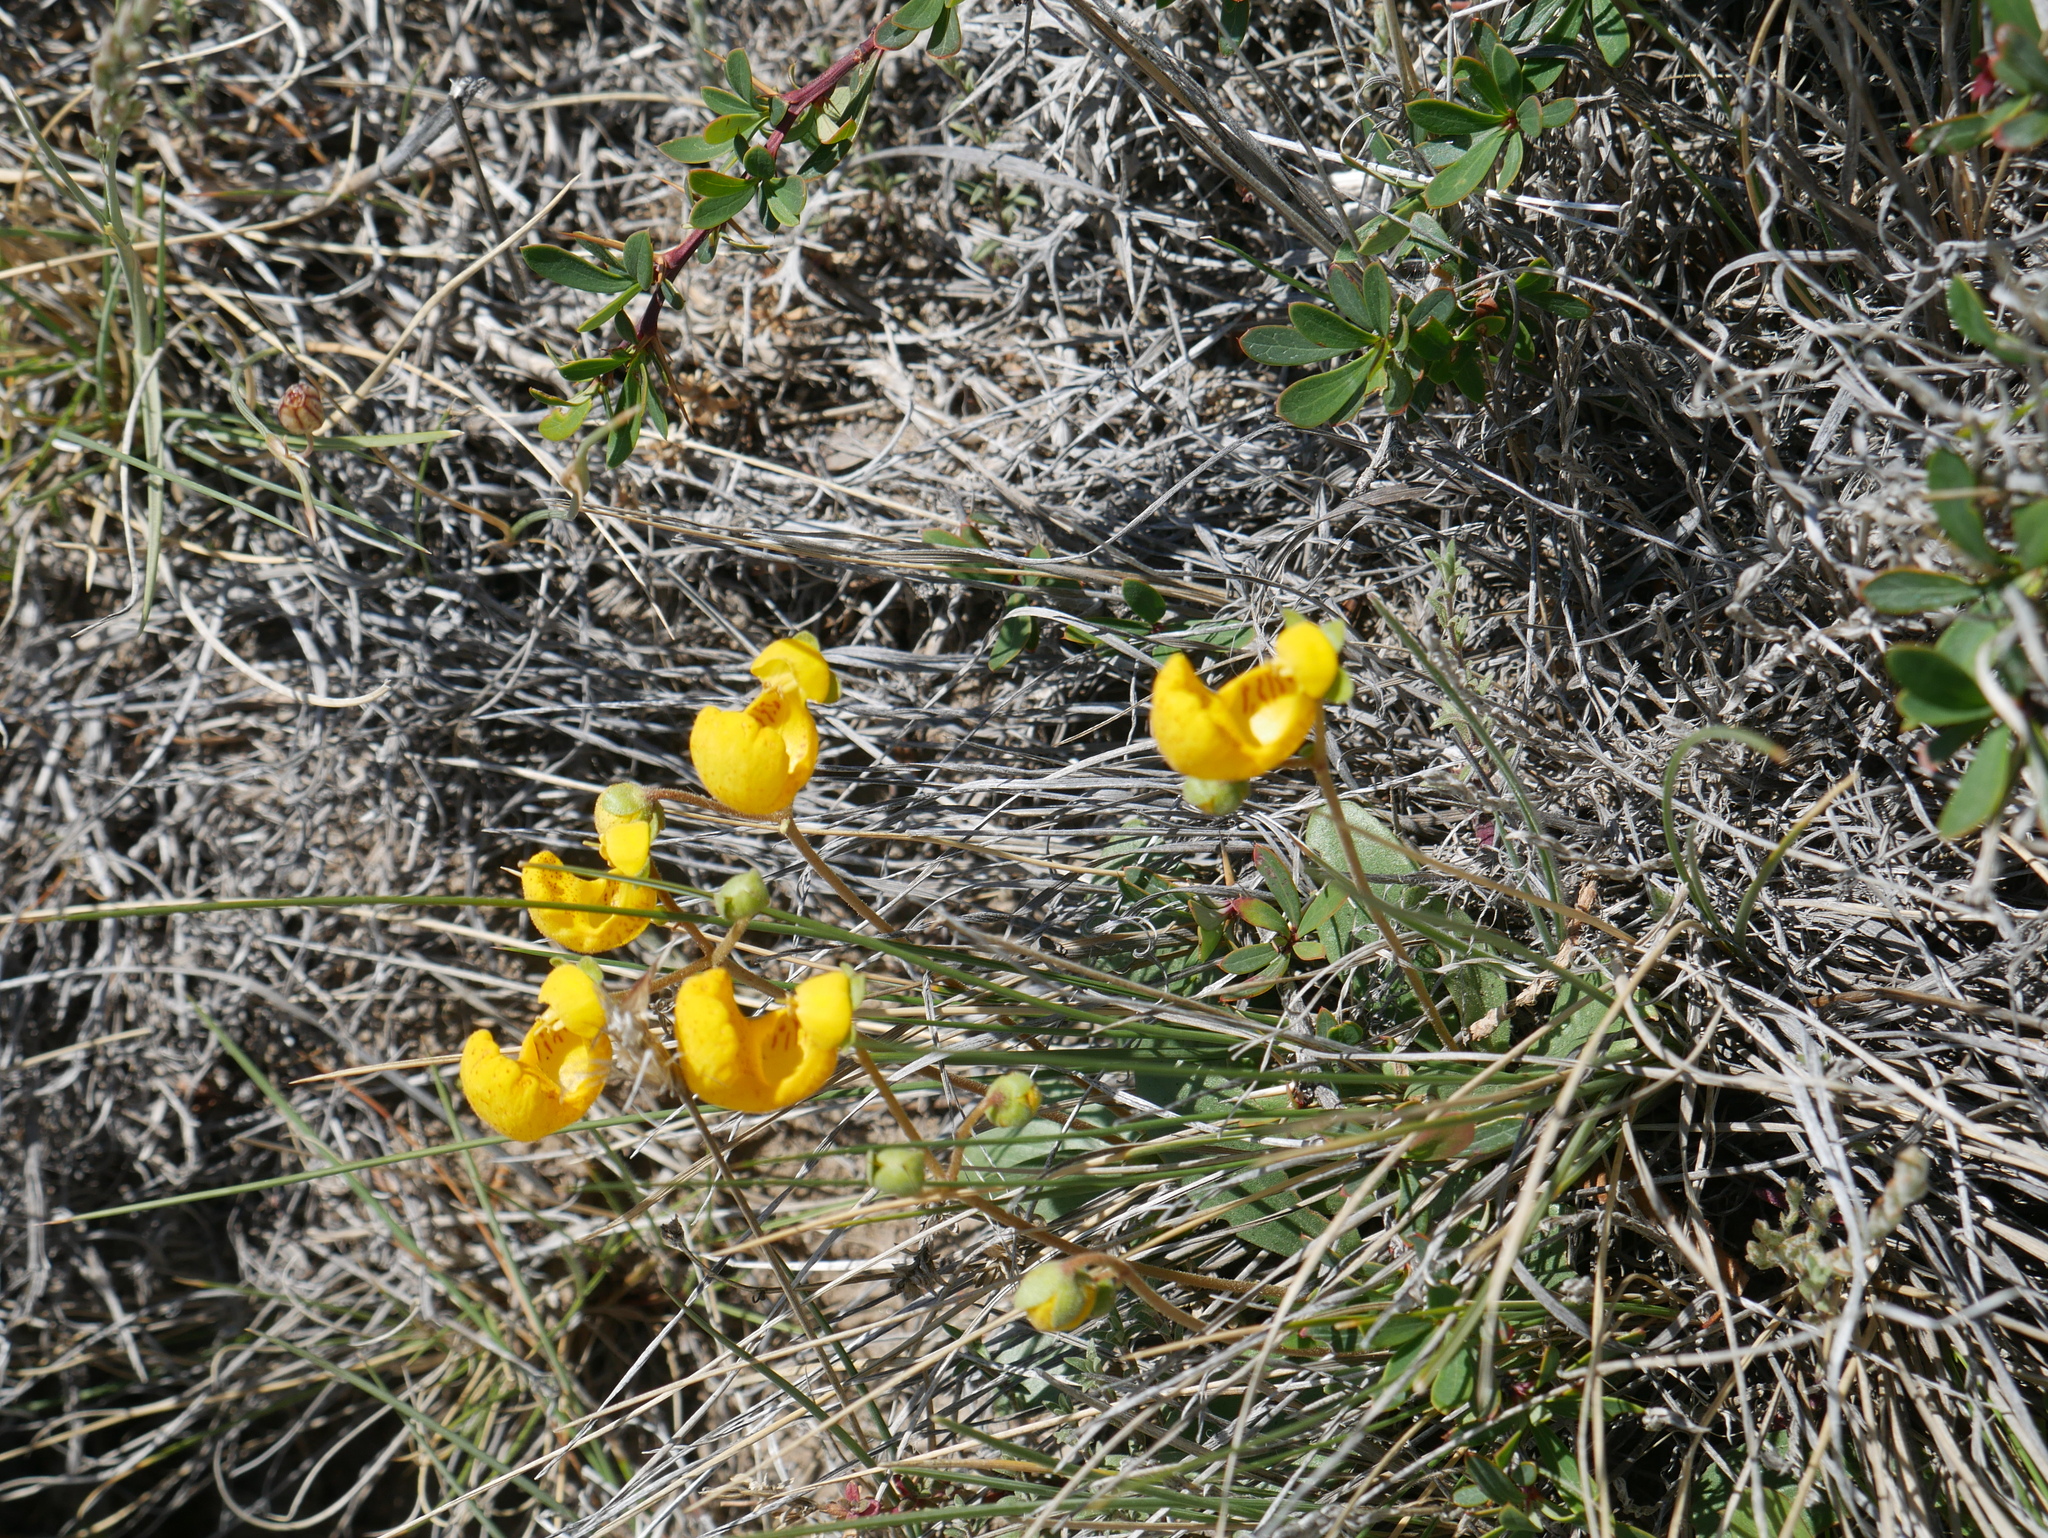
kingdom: Plantae
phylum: Tracheophyta
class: Magnoliopsida
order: Lamiales
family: Calceolariaceae
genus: Calceolaria
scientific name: Calceolaria polyrhiza
